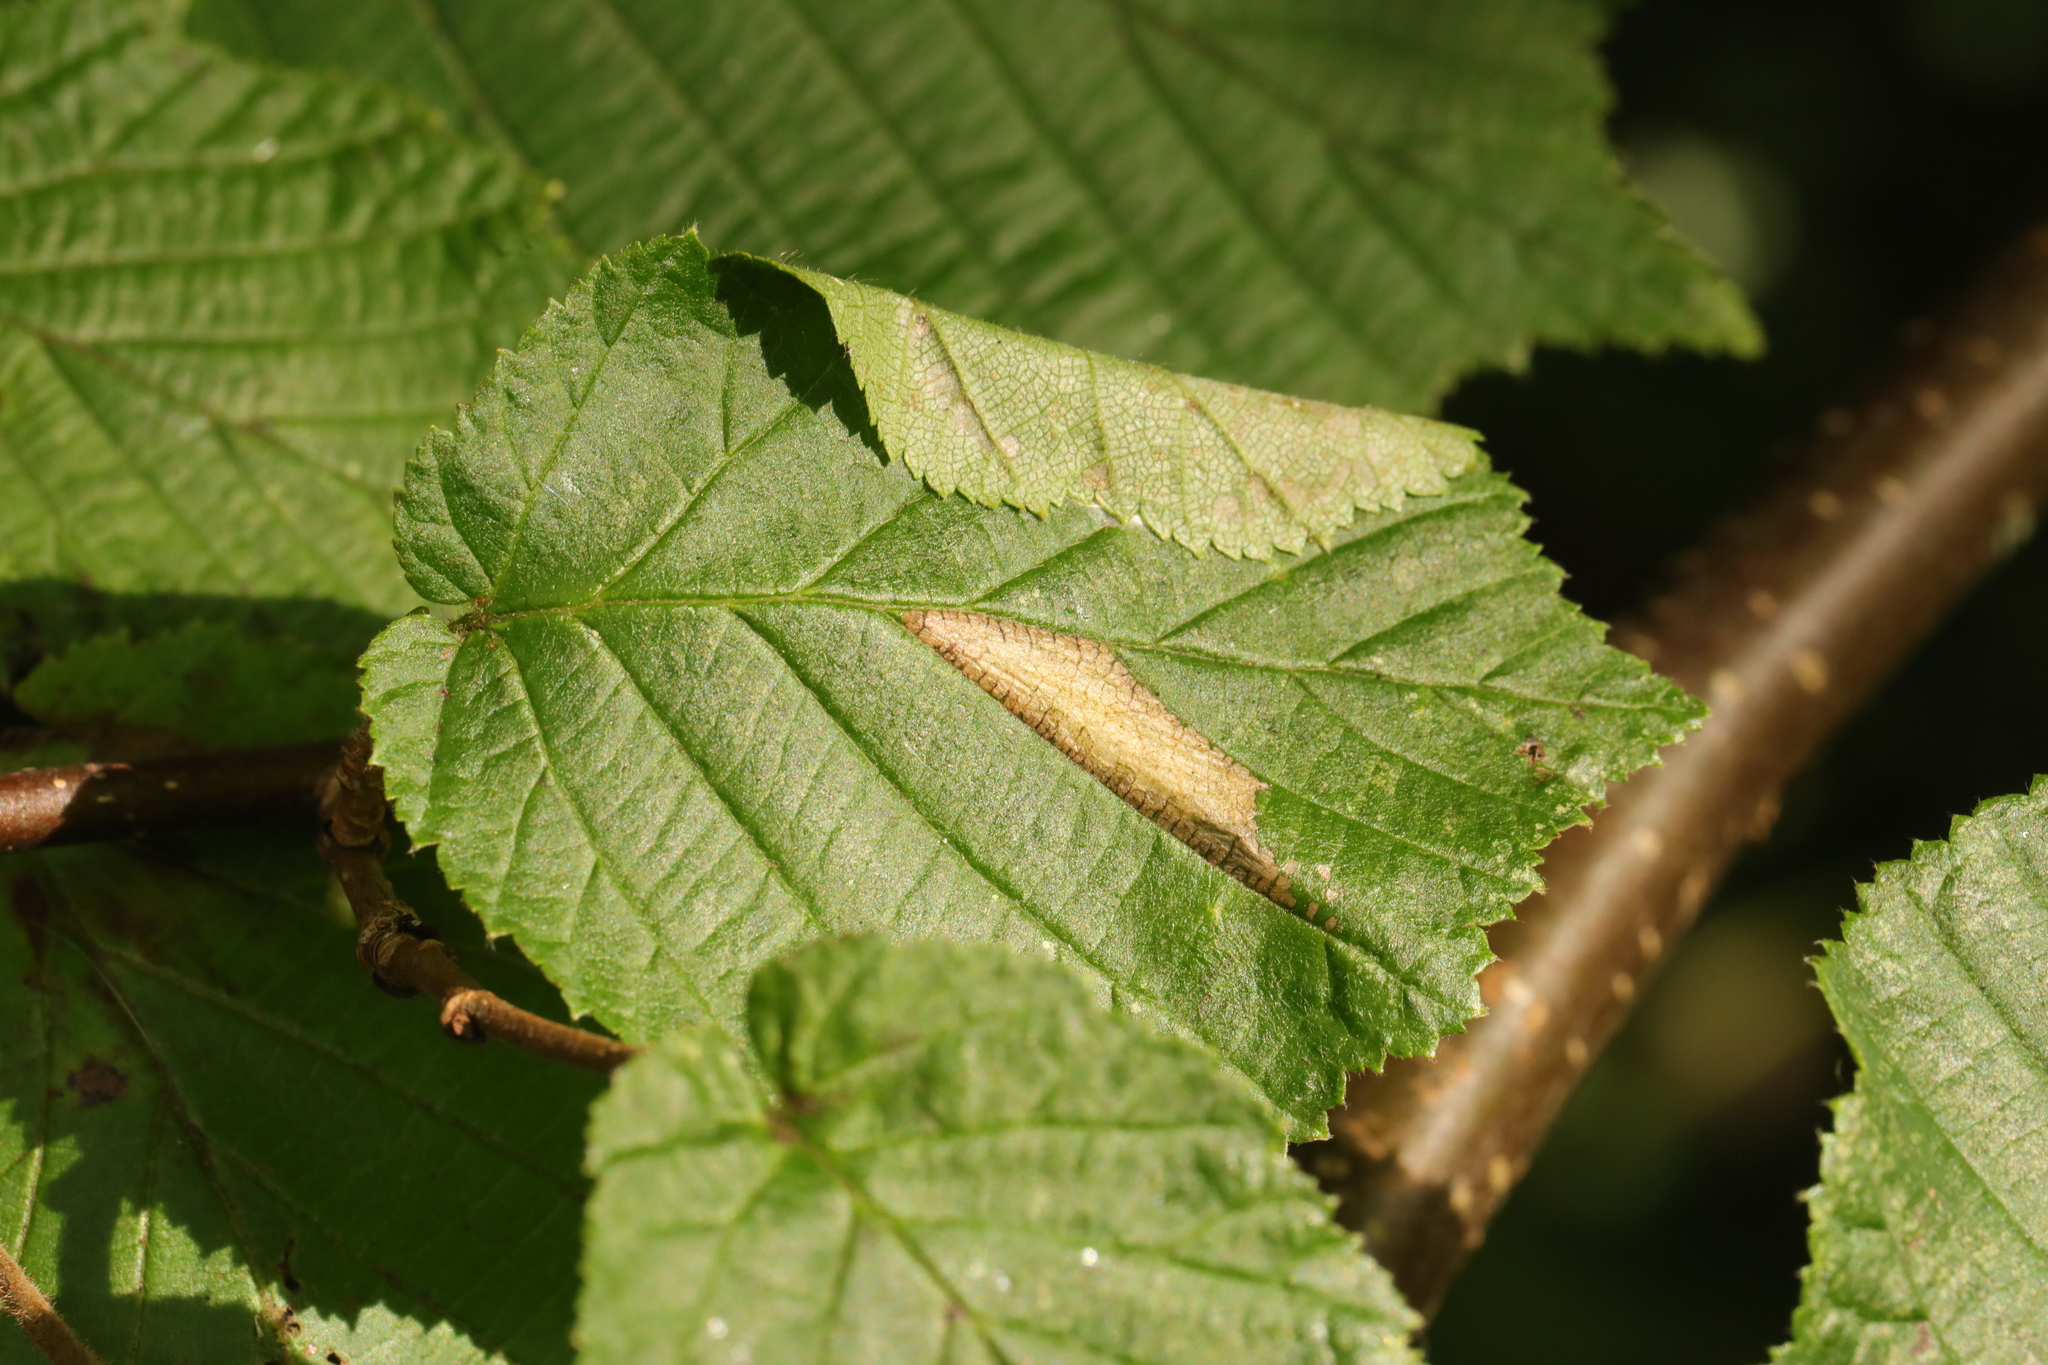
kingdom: Animalia
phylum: Arthropoda
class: Insecta
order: Lepidoptera
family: Gracillariidae
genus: Parornix
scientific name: Parornix devoniella
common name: Hazel slender
